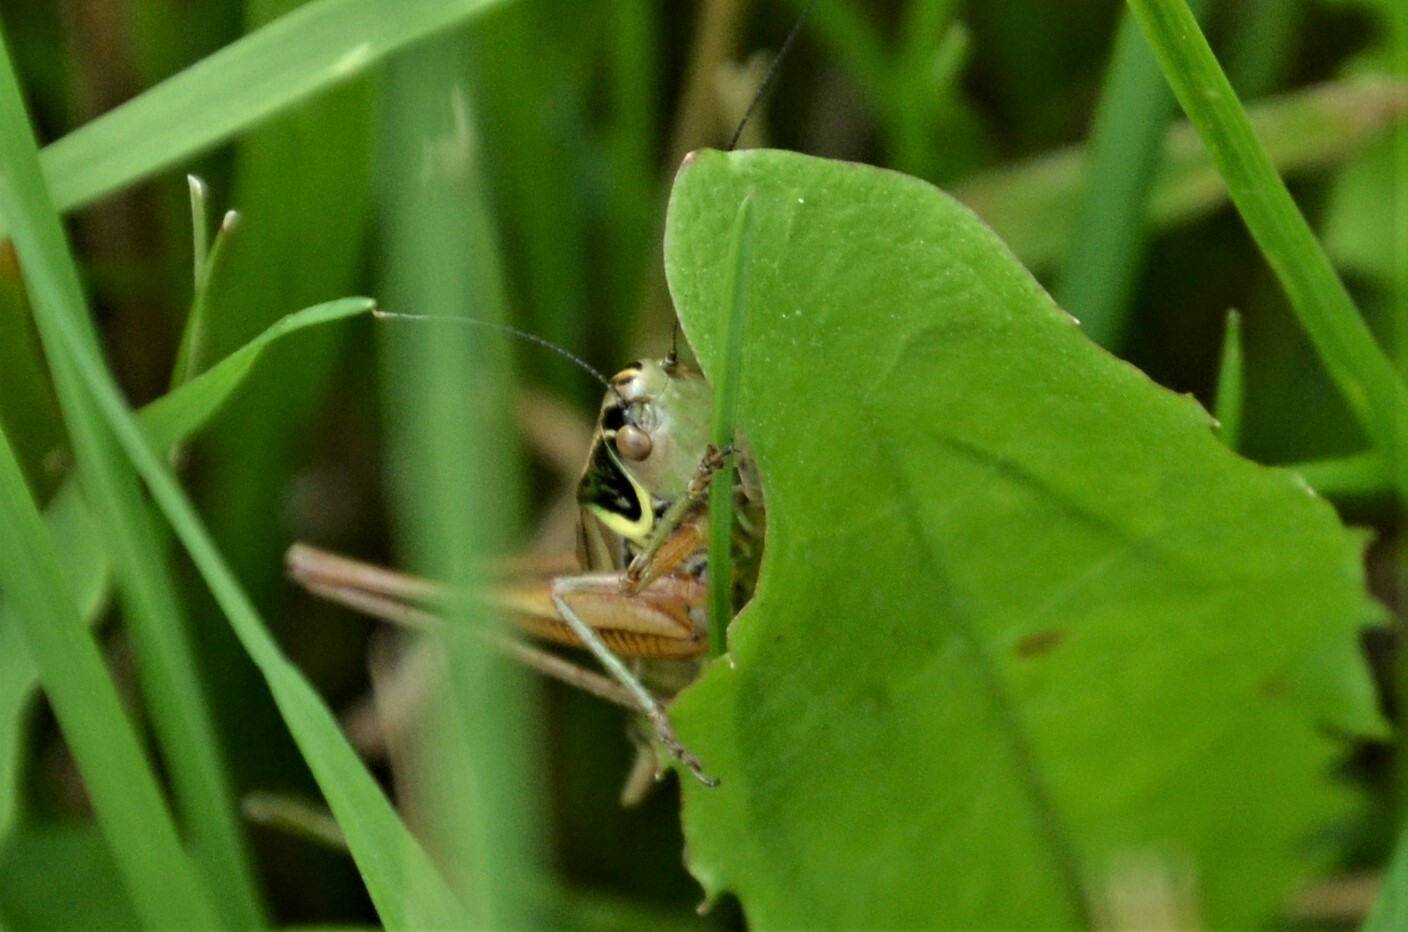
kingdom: Animalia
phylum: Arthropoda
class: Insecta
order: Orthoptera
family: Tettigoniidae
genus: Roeseliana
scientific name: Roeseliana roeselii
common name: Roesel's bush cricket
